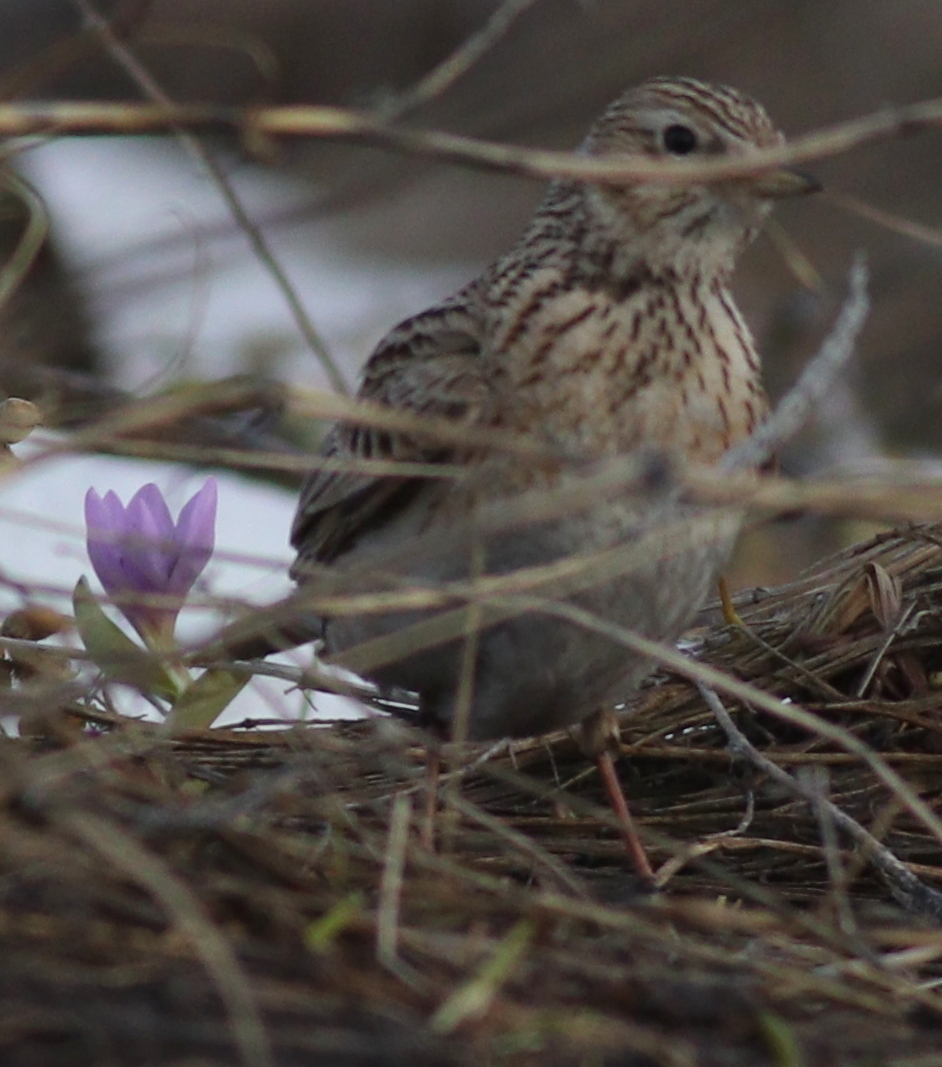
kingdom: Animalia
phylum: Chordata
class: Aves
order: Passeriformes
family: Alaudidae
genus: Alauda
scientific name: Alauda arvensis
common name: Eurasian skylark
